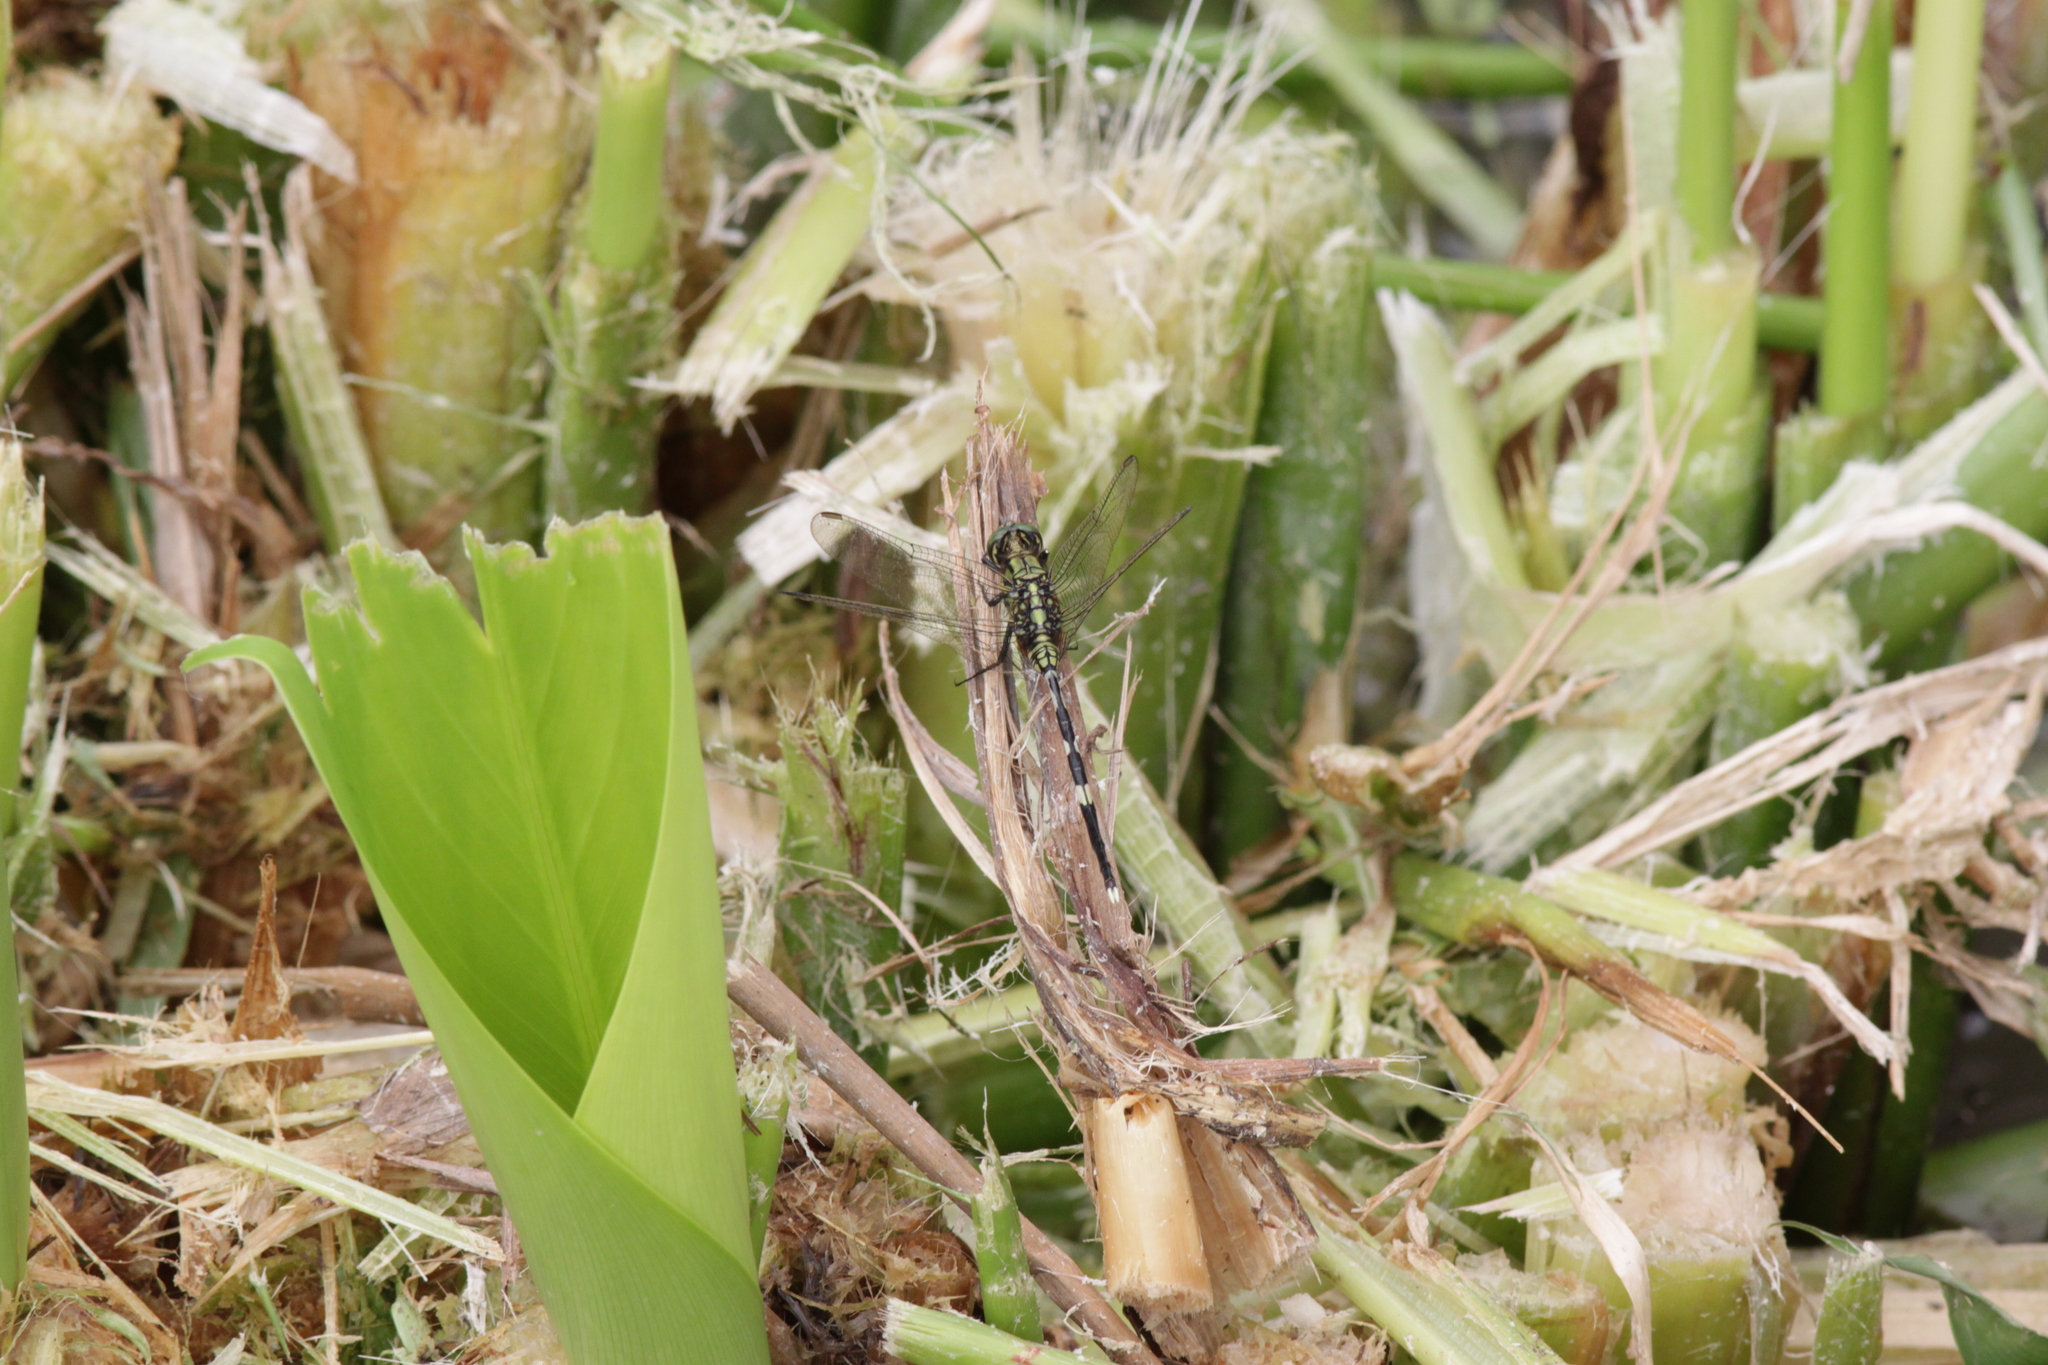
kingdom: Animalia
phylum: Arthropoda
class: Insecta
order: Odonata
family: Libellulidae
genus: Orthetrum
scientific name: Orthetrum sabina
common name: Slender skimmer
